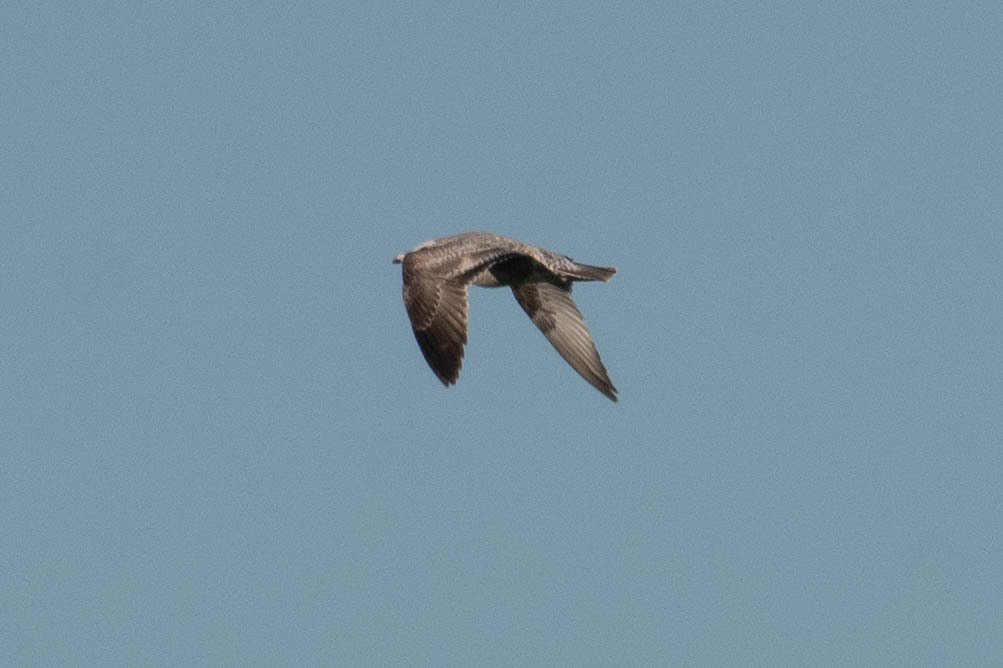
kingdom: Animalia
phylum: Chordata
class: Aves
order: Charadriiformes
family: Laridae
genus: Larus
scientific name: Larus californicus
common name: California gull
